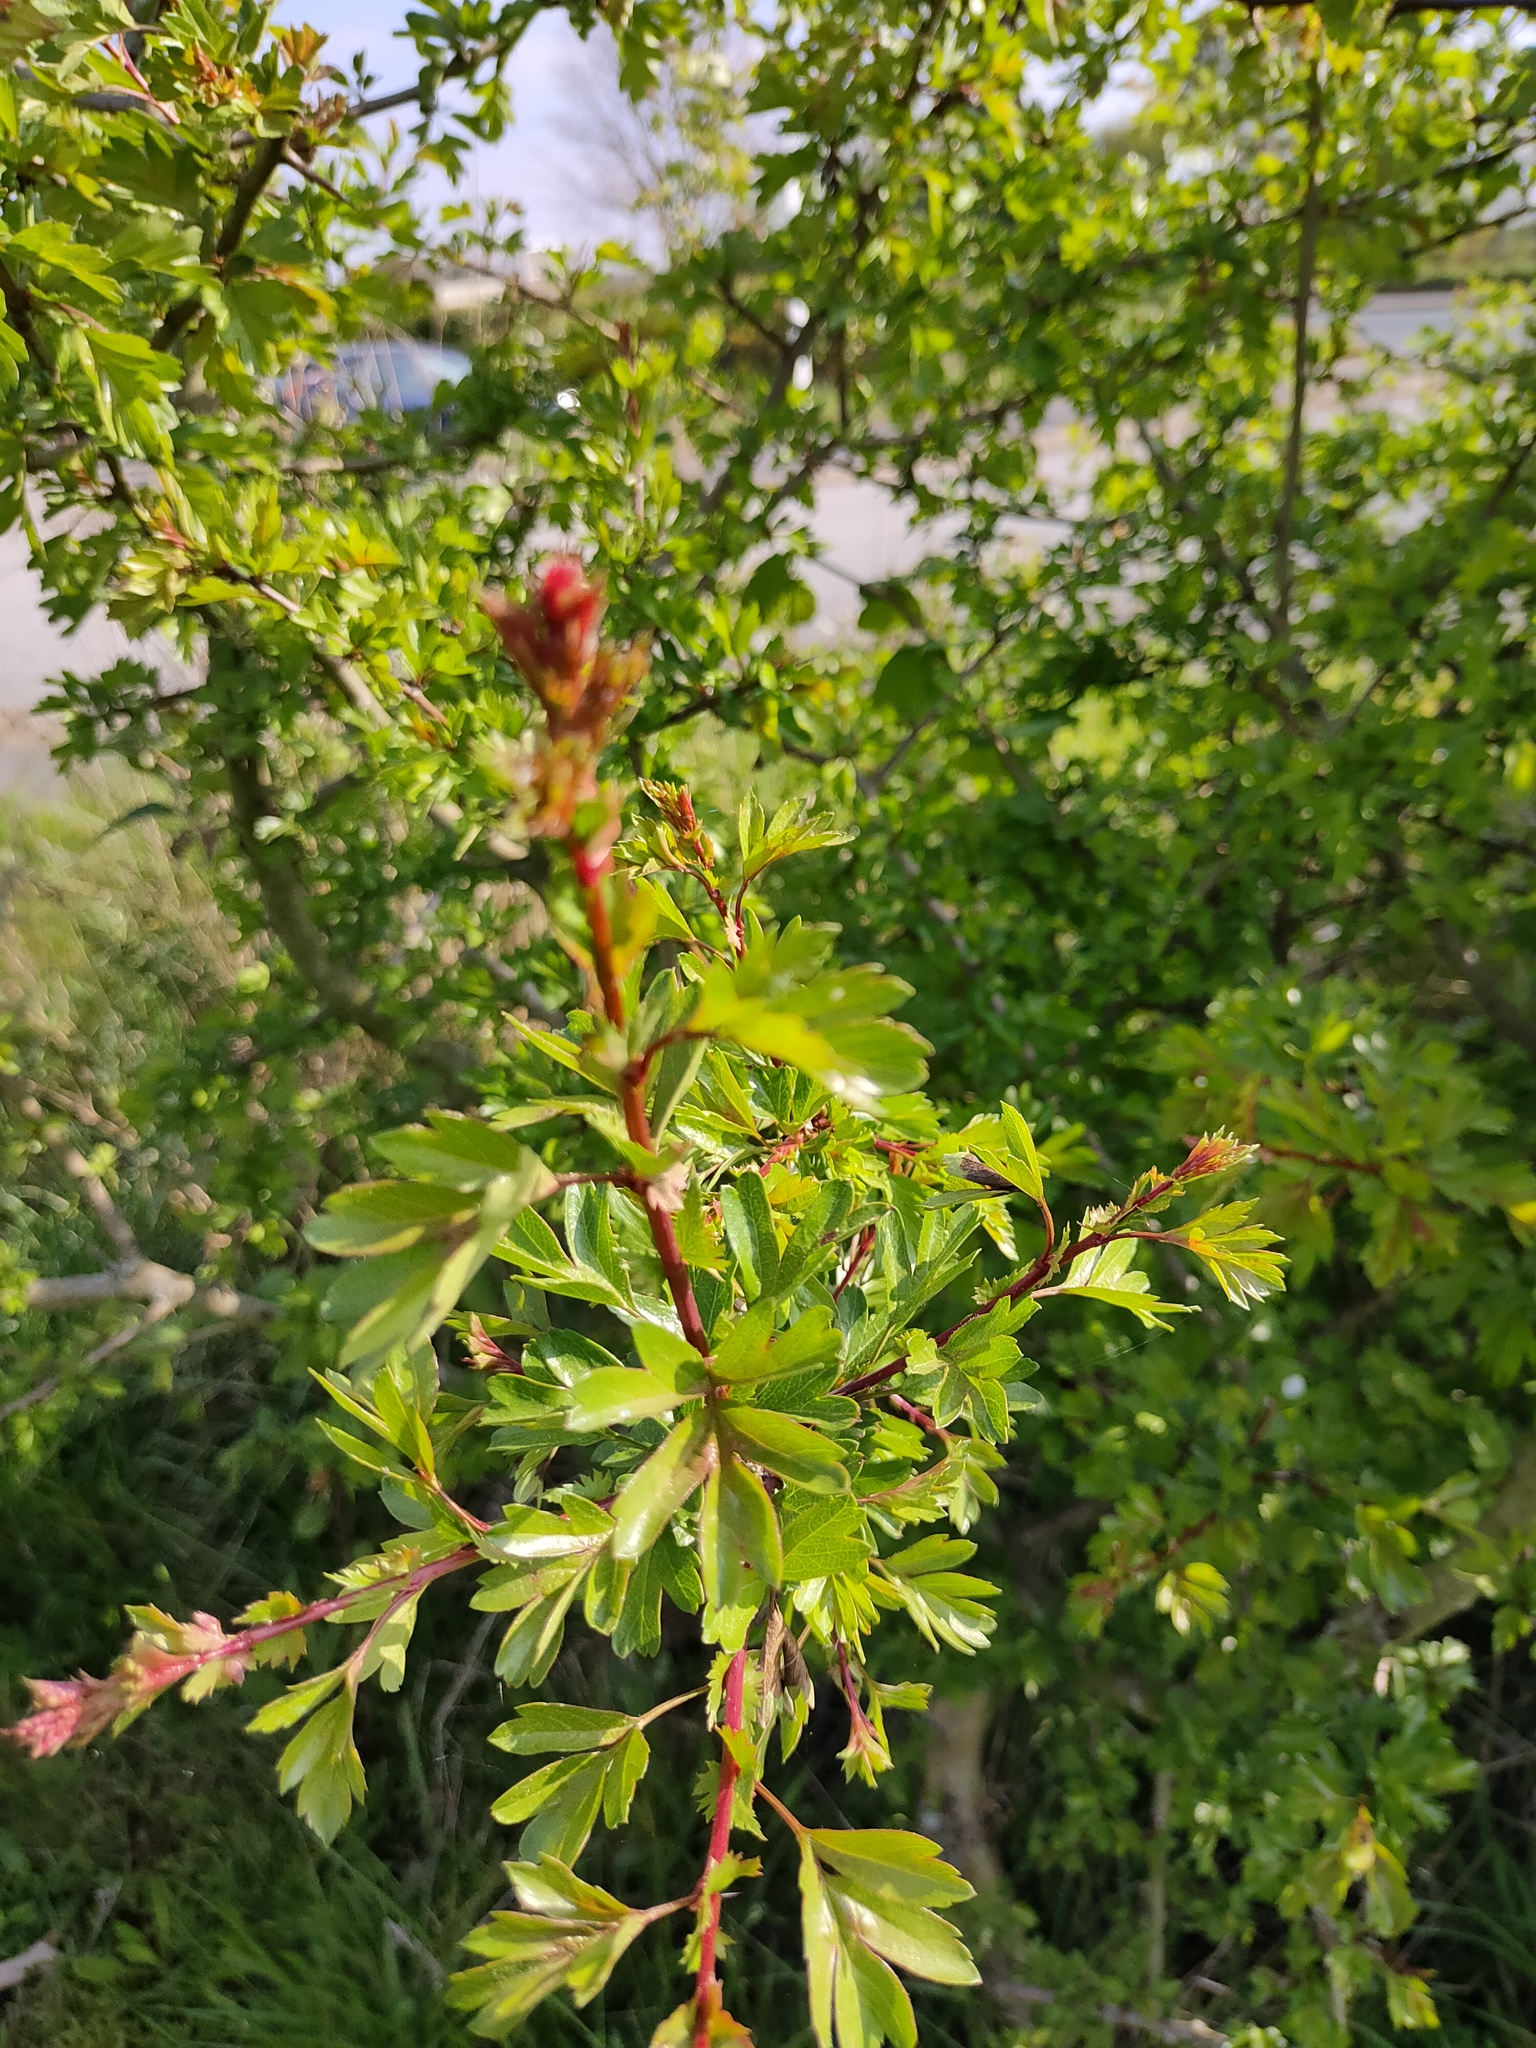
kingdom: Plantae
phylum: Tracheophyta
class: Magnoliopsida
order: Rosales
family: Rosaceae
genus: Crataegus
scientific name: Crataegus monogyna
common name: Hawthorn
